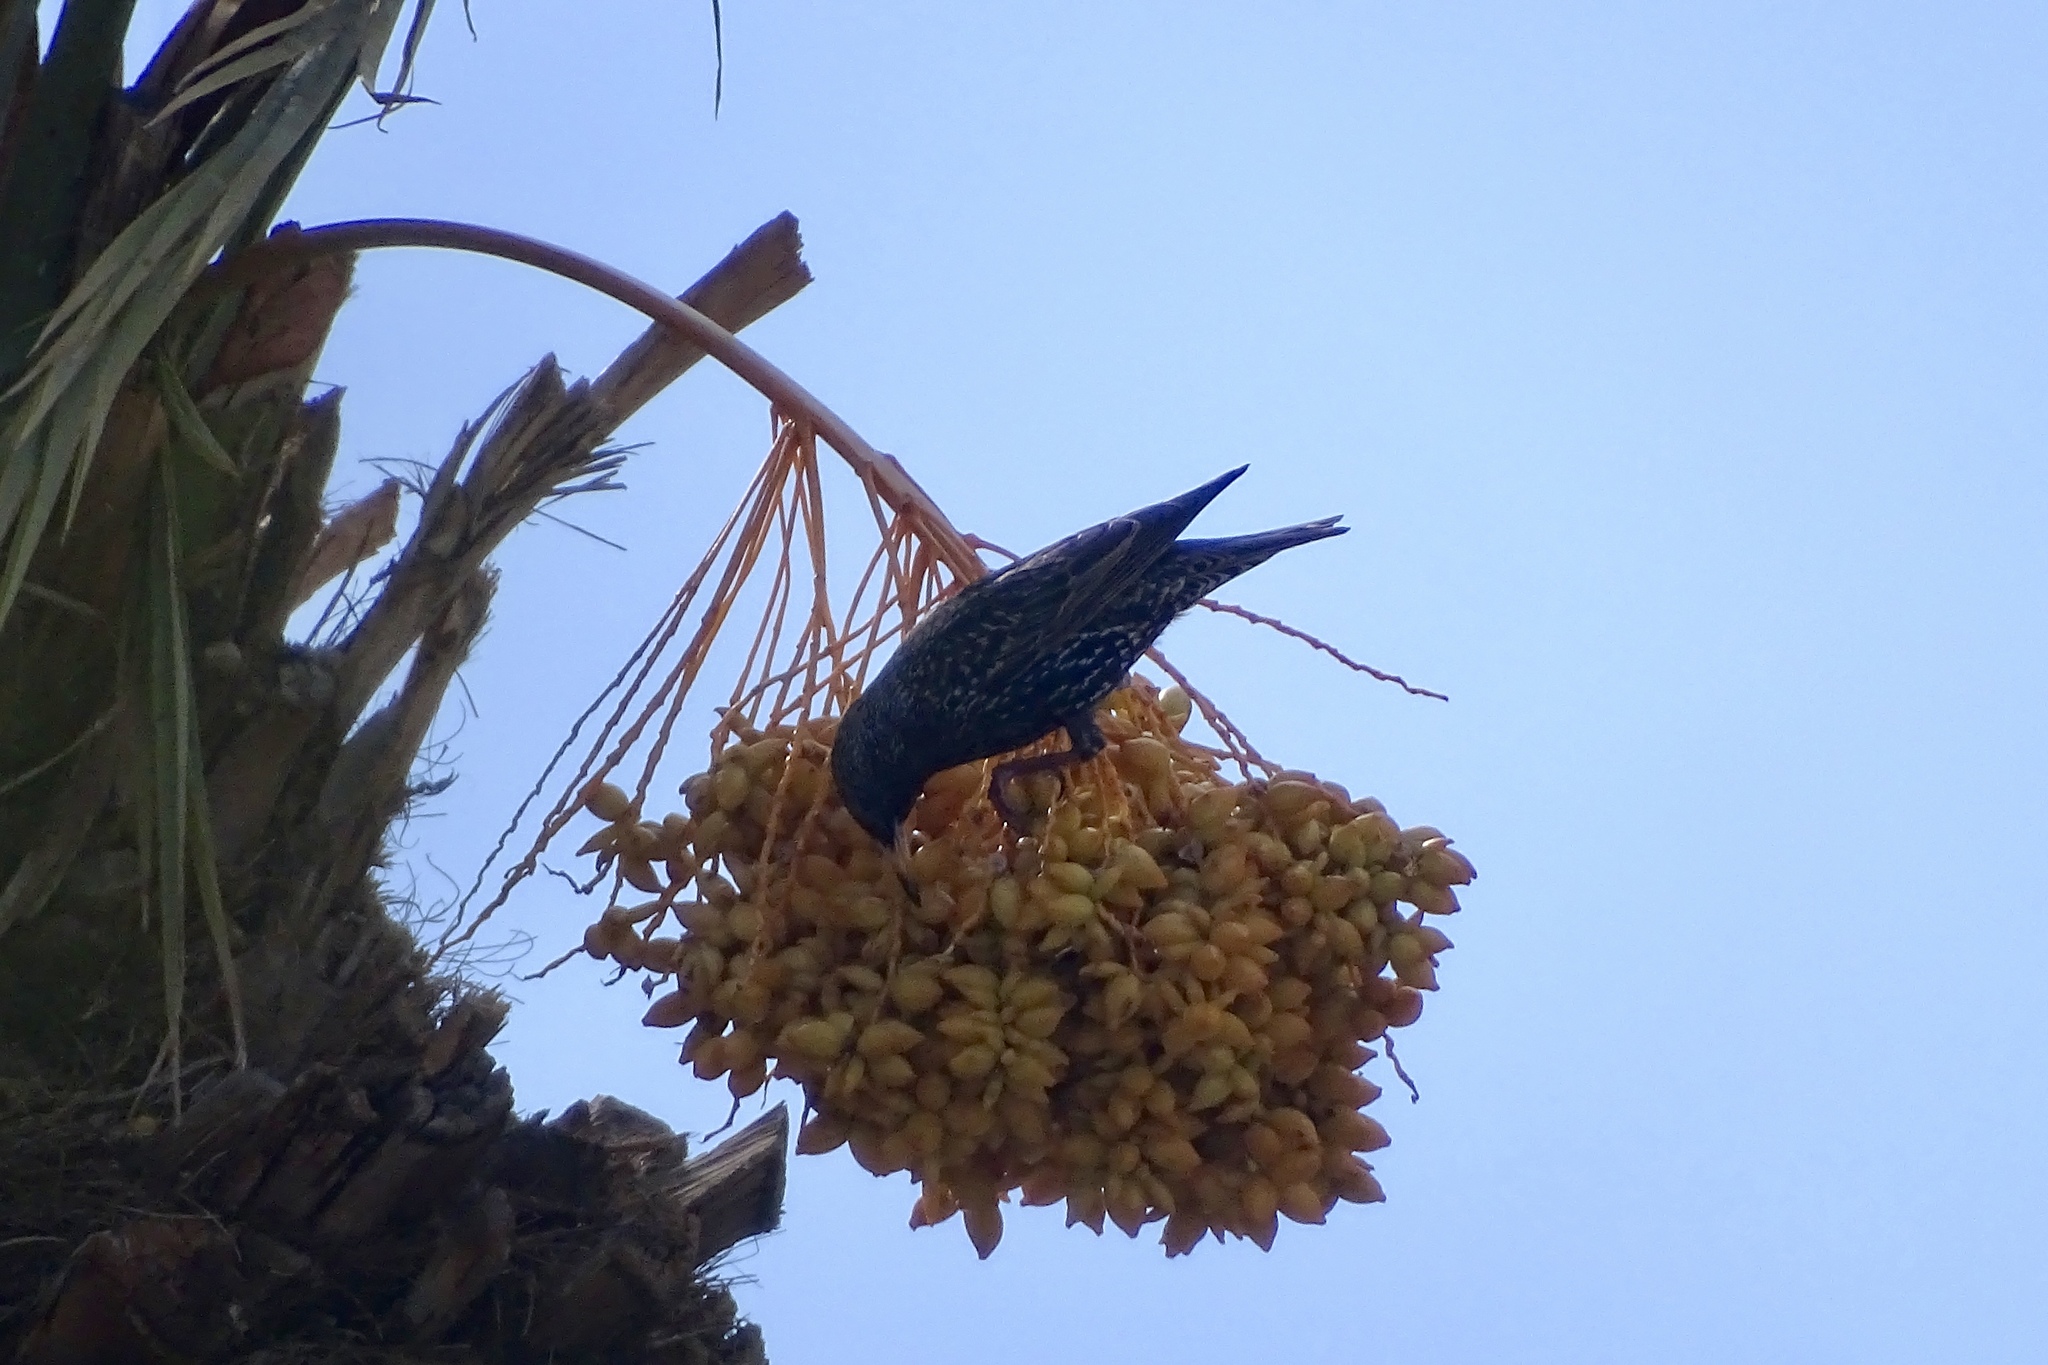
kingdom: Animalia
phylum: Chordata
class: Aves
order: Passeriformes
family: Sturnidae
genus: Sturnus
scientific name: Sturnus vulgaris
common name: Common starling
